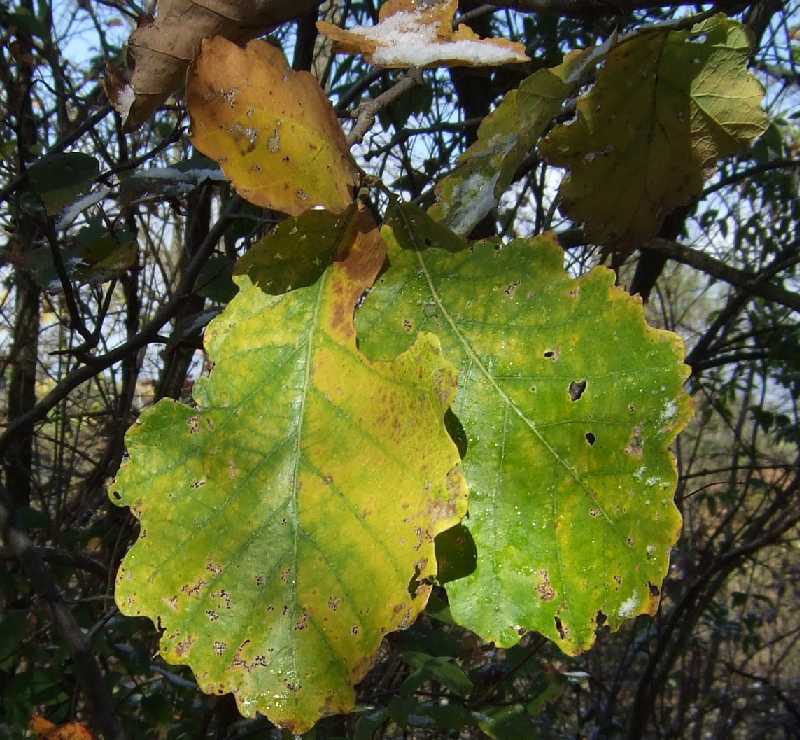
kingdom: Plantae
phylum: Tracheophyta
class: Magnoliopsida
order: Fagales
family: Fagaceae
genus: Quercus
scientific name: Quercus bicolor
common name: Swamp white oak
